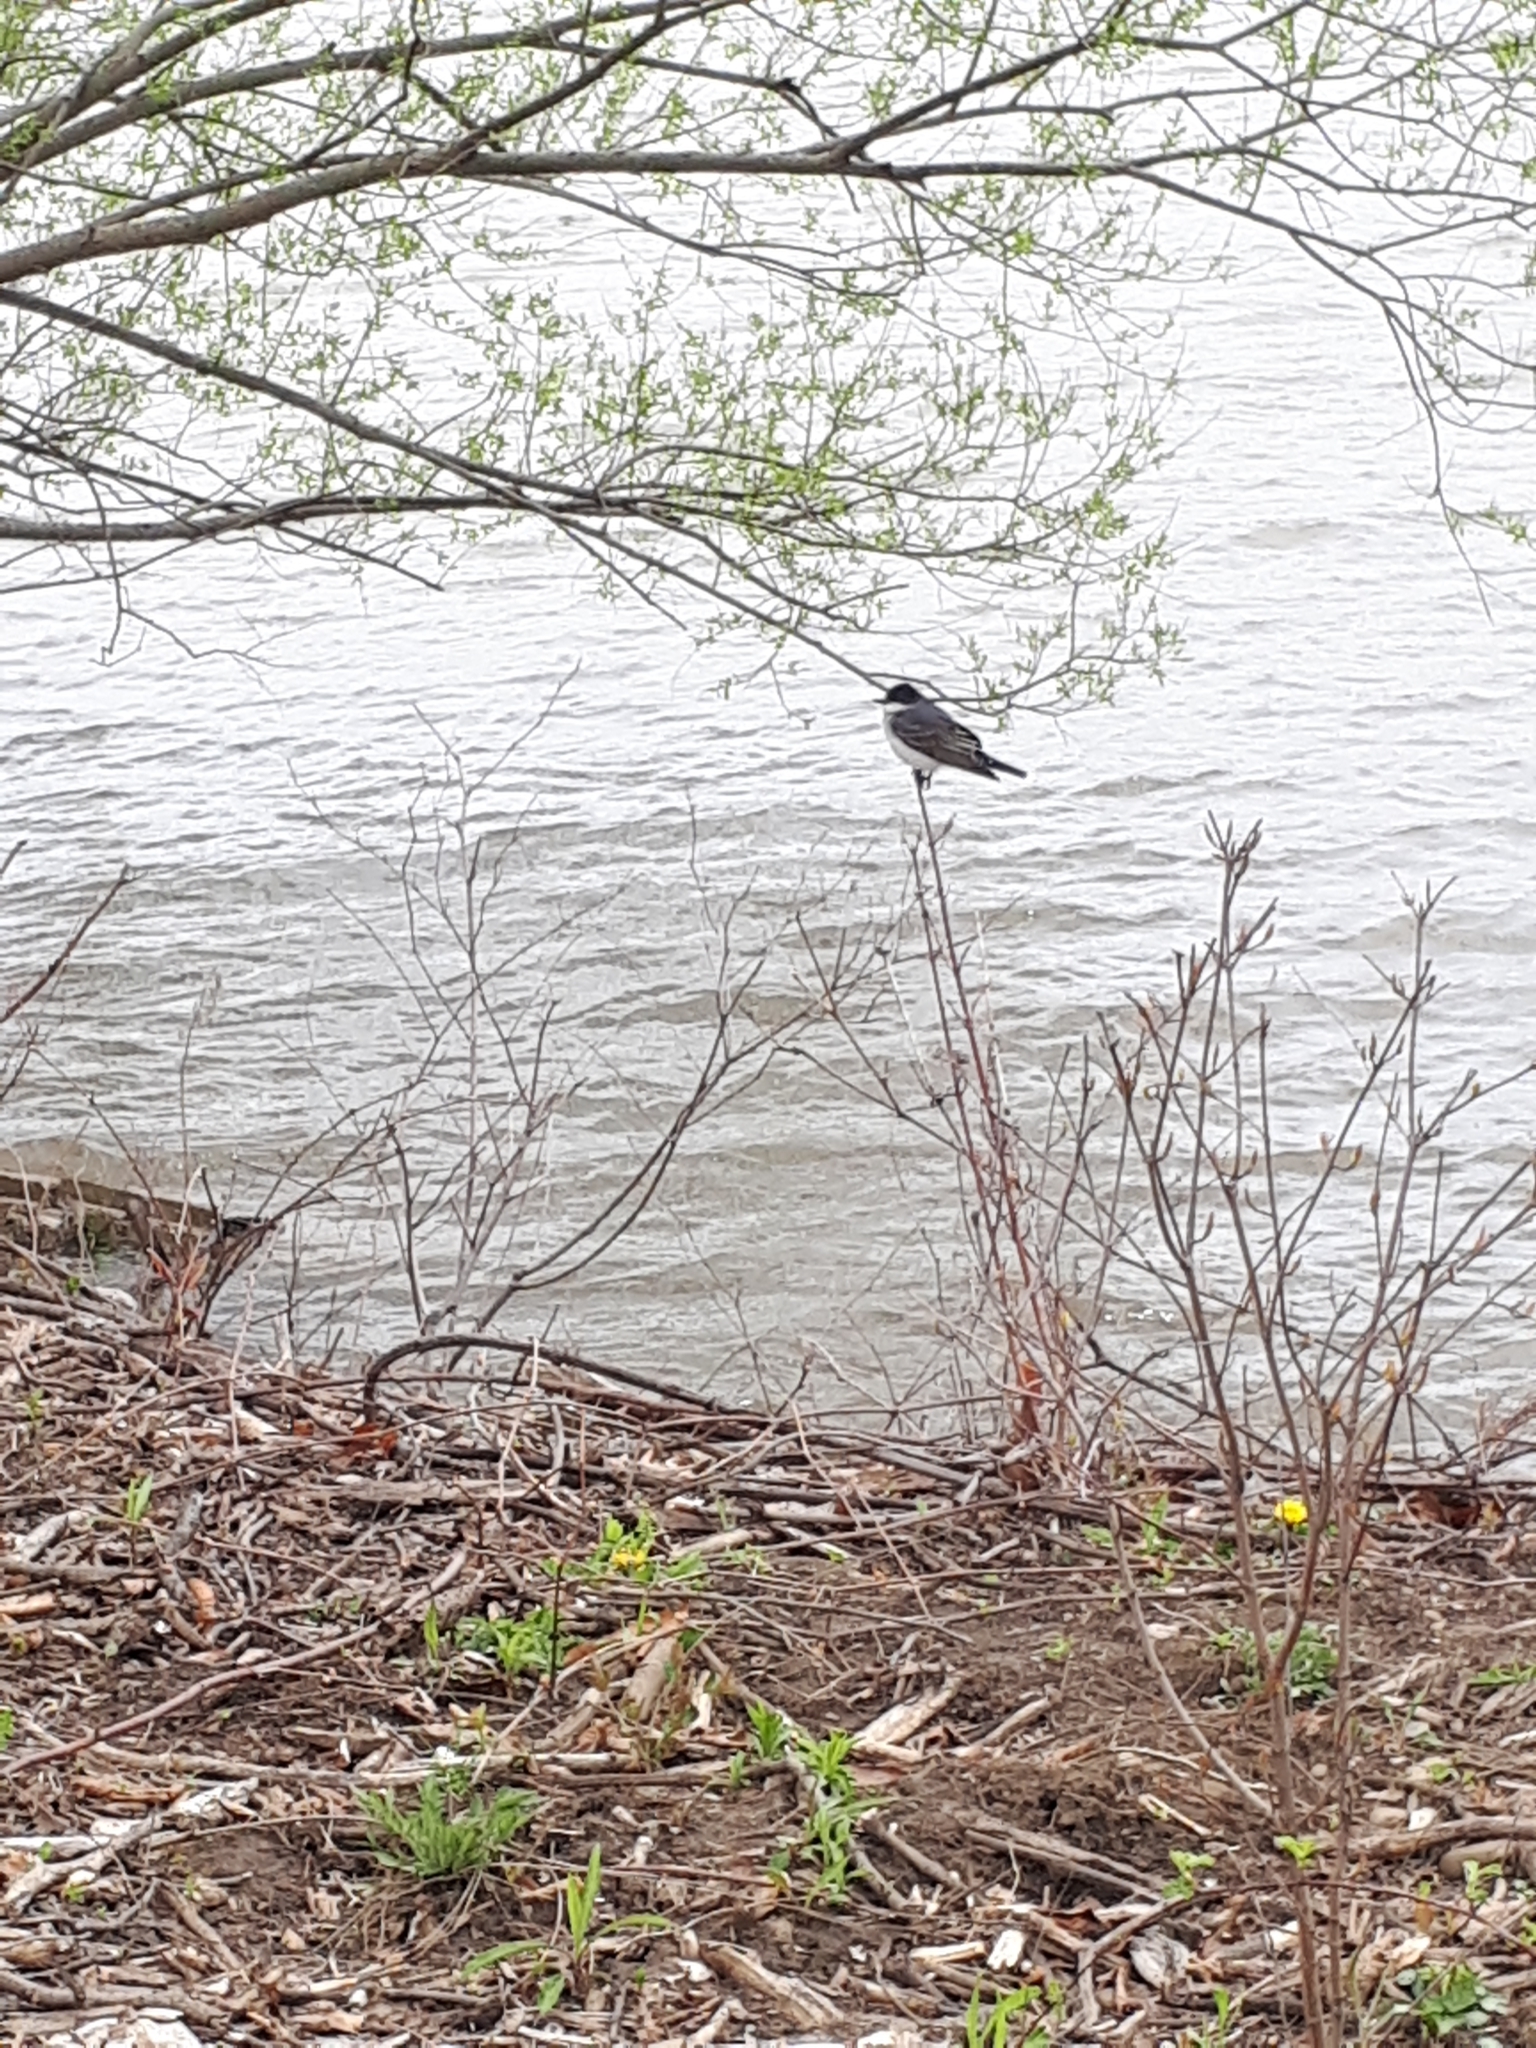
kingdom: Animalia
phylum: Chordata
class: Aves
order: Passeriformes
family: Tyrannidae
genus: Tyrannus
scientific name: Tyrannus tyrannus
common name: Eastern kingbird
